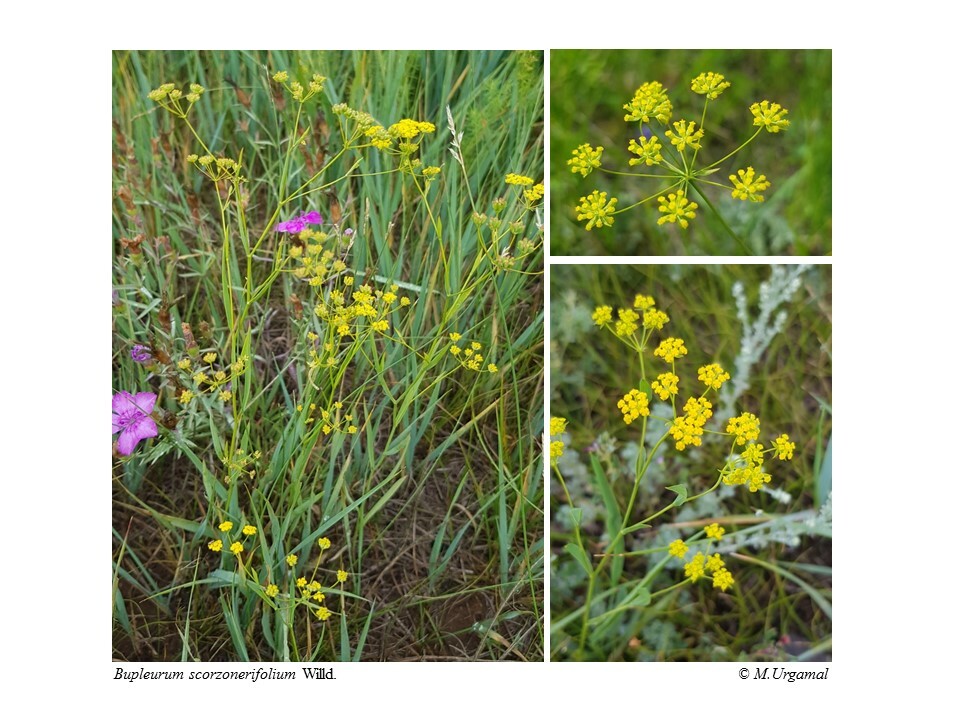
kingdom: Plantae
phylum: Tracheophyta
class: Magnoliopsida
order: Apiales
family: Apiaceae
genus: Bupleurum
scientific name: Bupleurum scorzonerifolium
